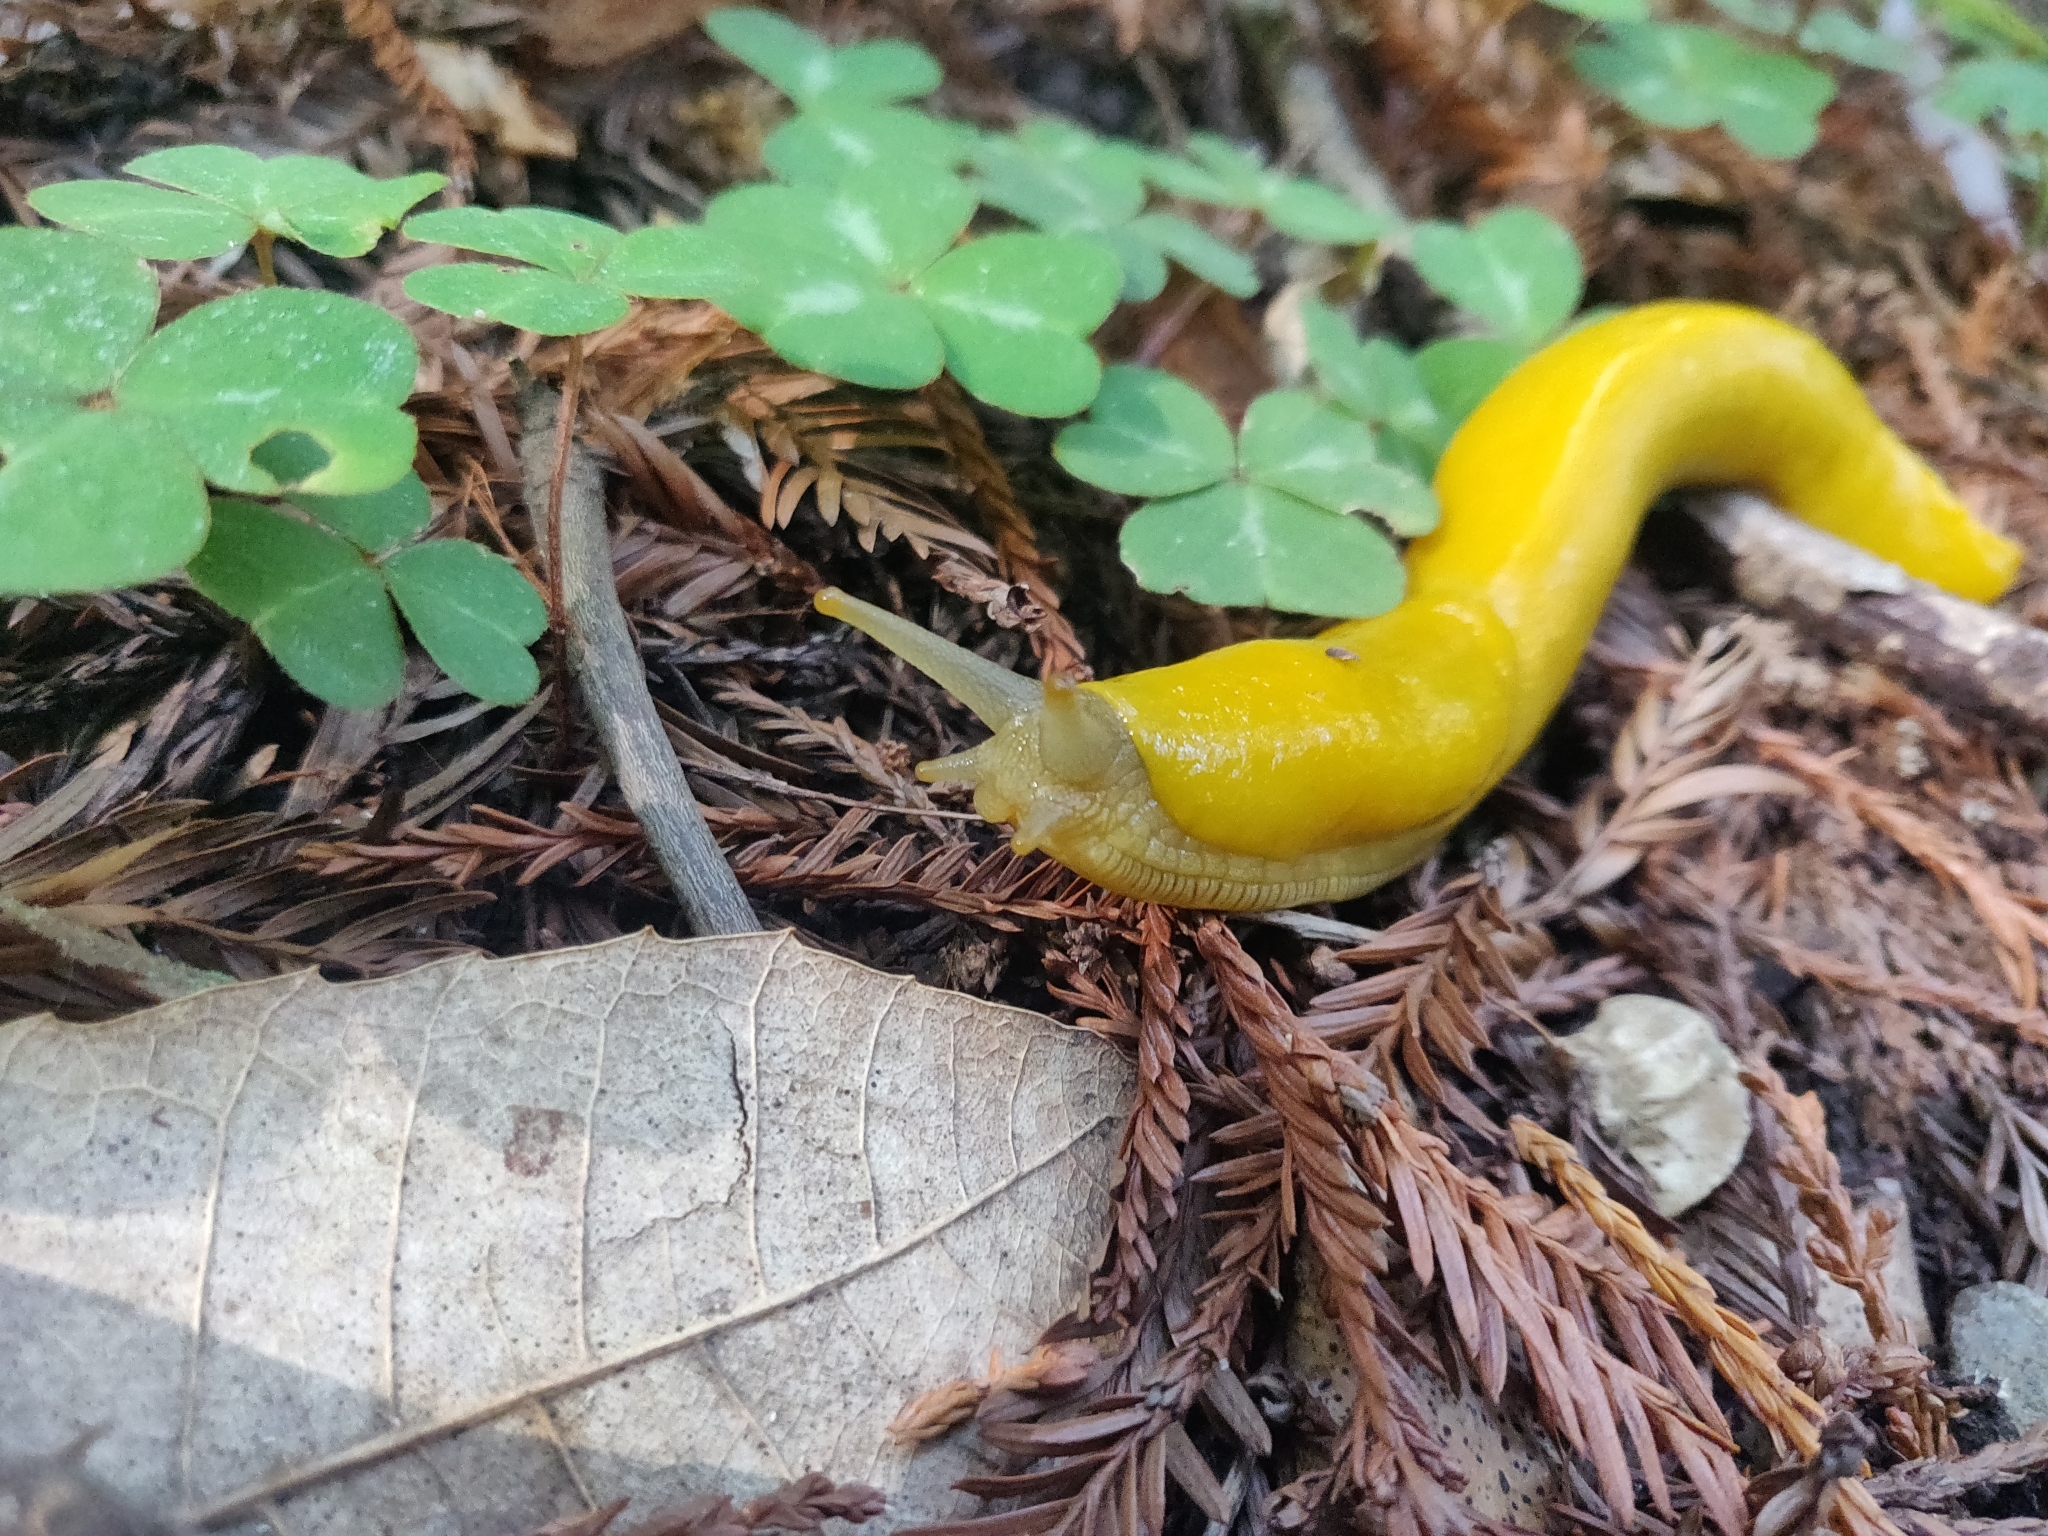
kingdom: Animalia
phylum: Mollusca
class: Gastropoda
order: Stylommatophora
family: Ariolimacidae
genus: Ariolimax
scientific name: Ariolimax californicus
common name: California banana slug
